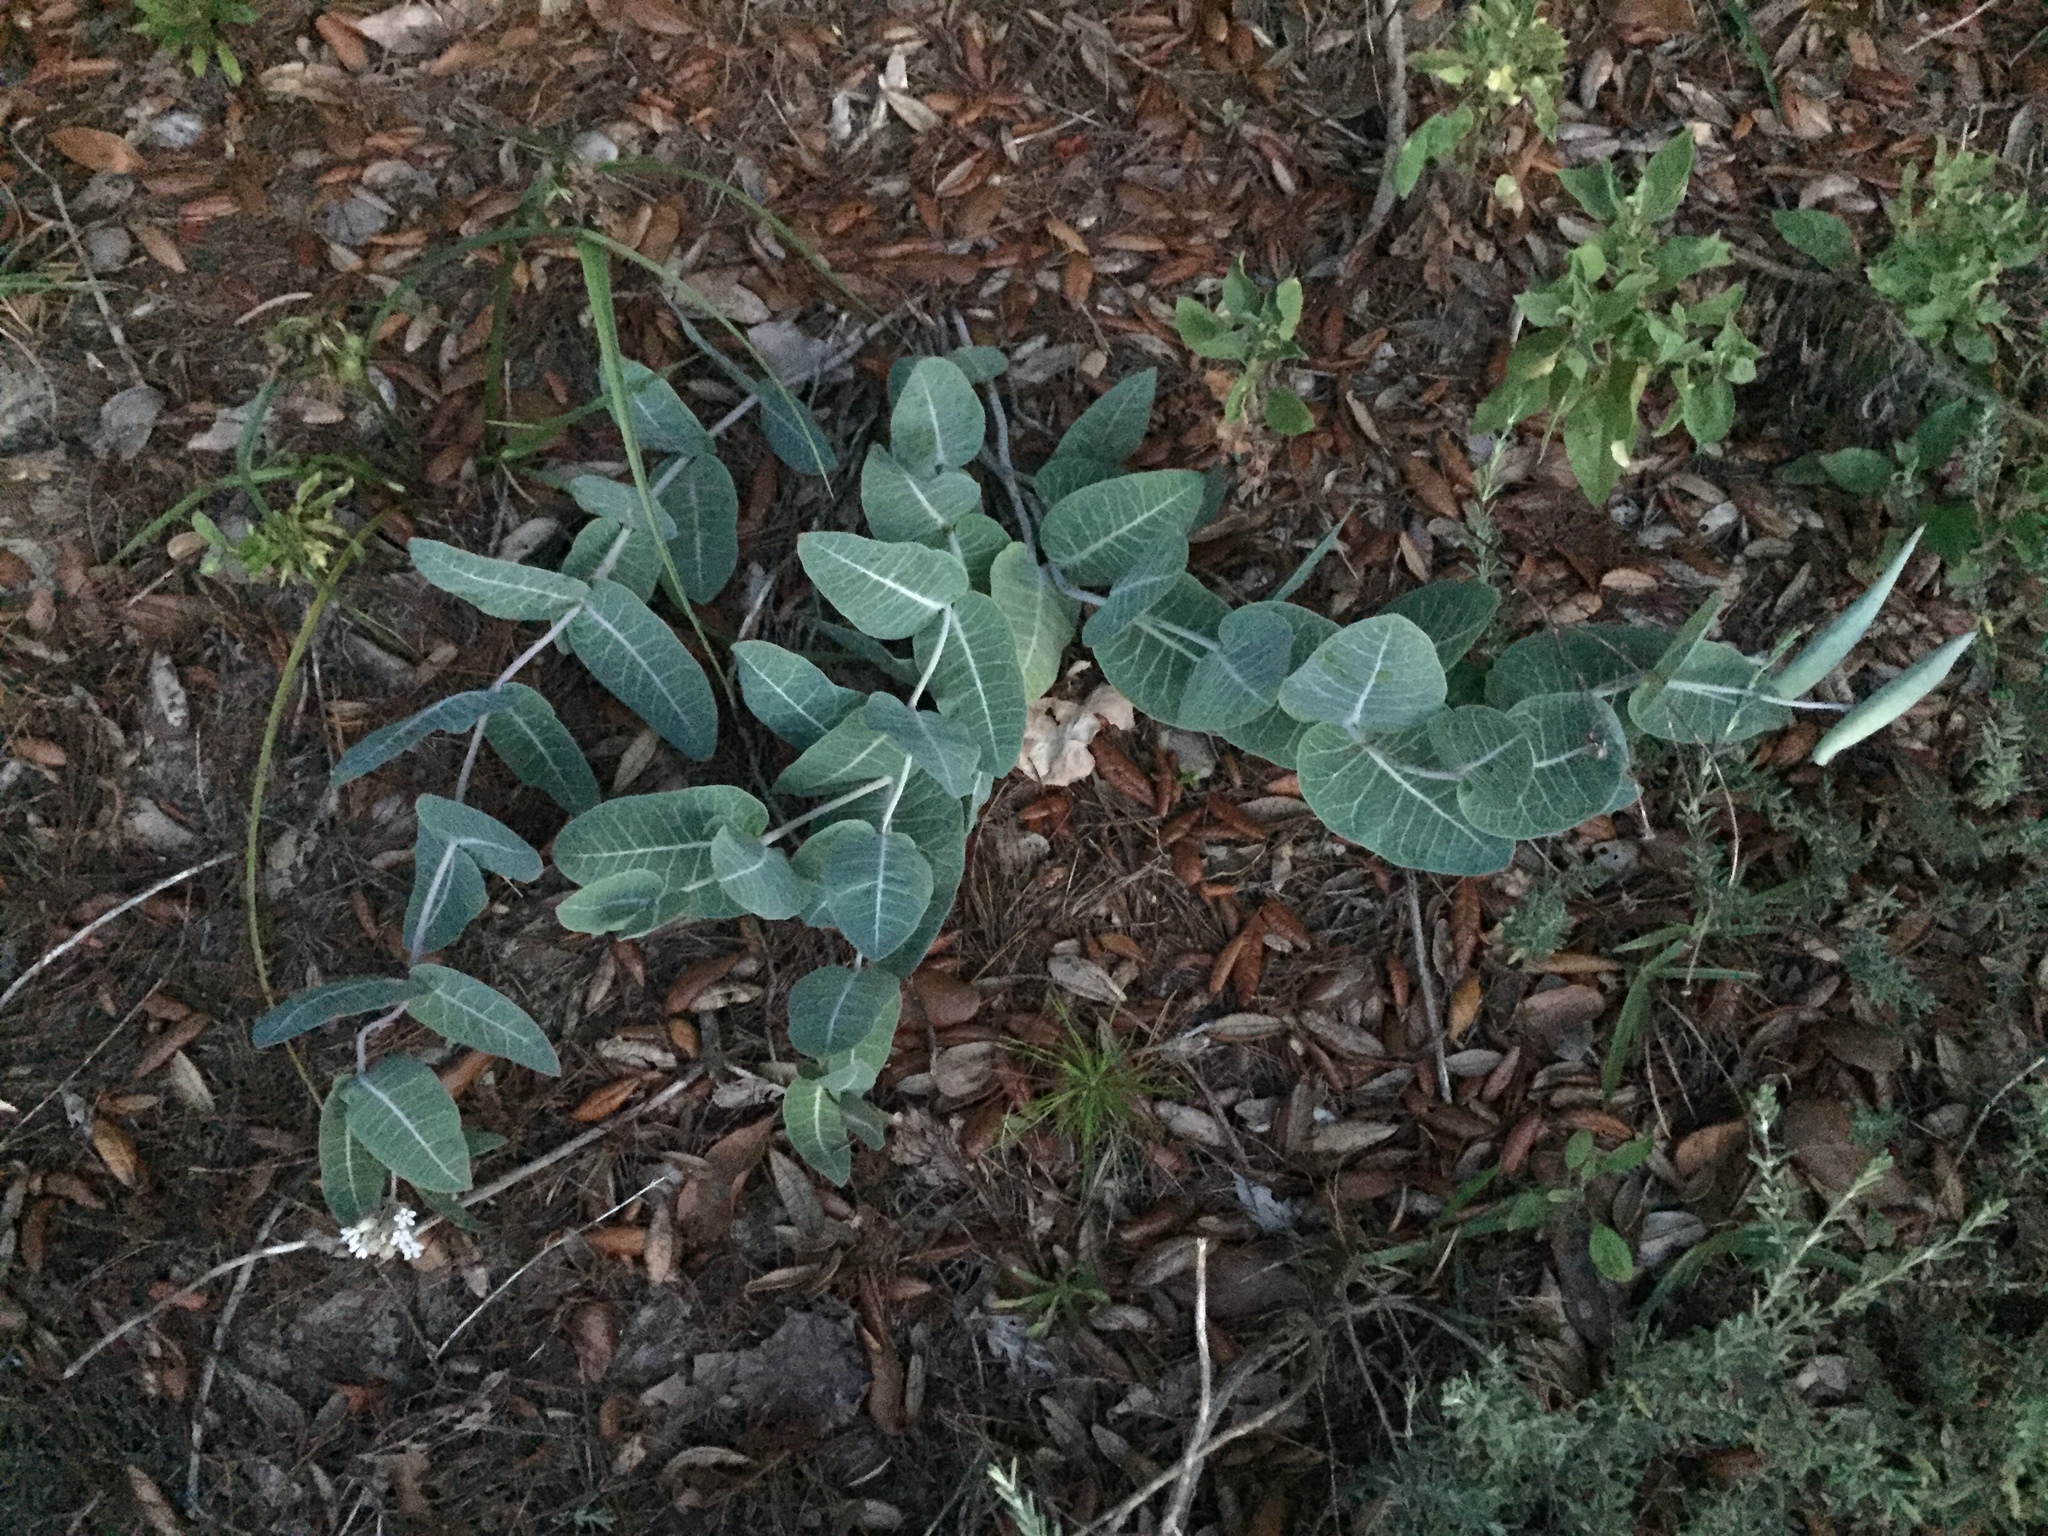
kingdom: Plantae
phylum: Tracheophyta
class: Magnoliopsida
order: Gentianales
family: Apocynaceae
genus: Asclepias
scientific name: Asclepias humistrata
